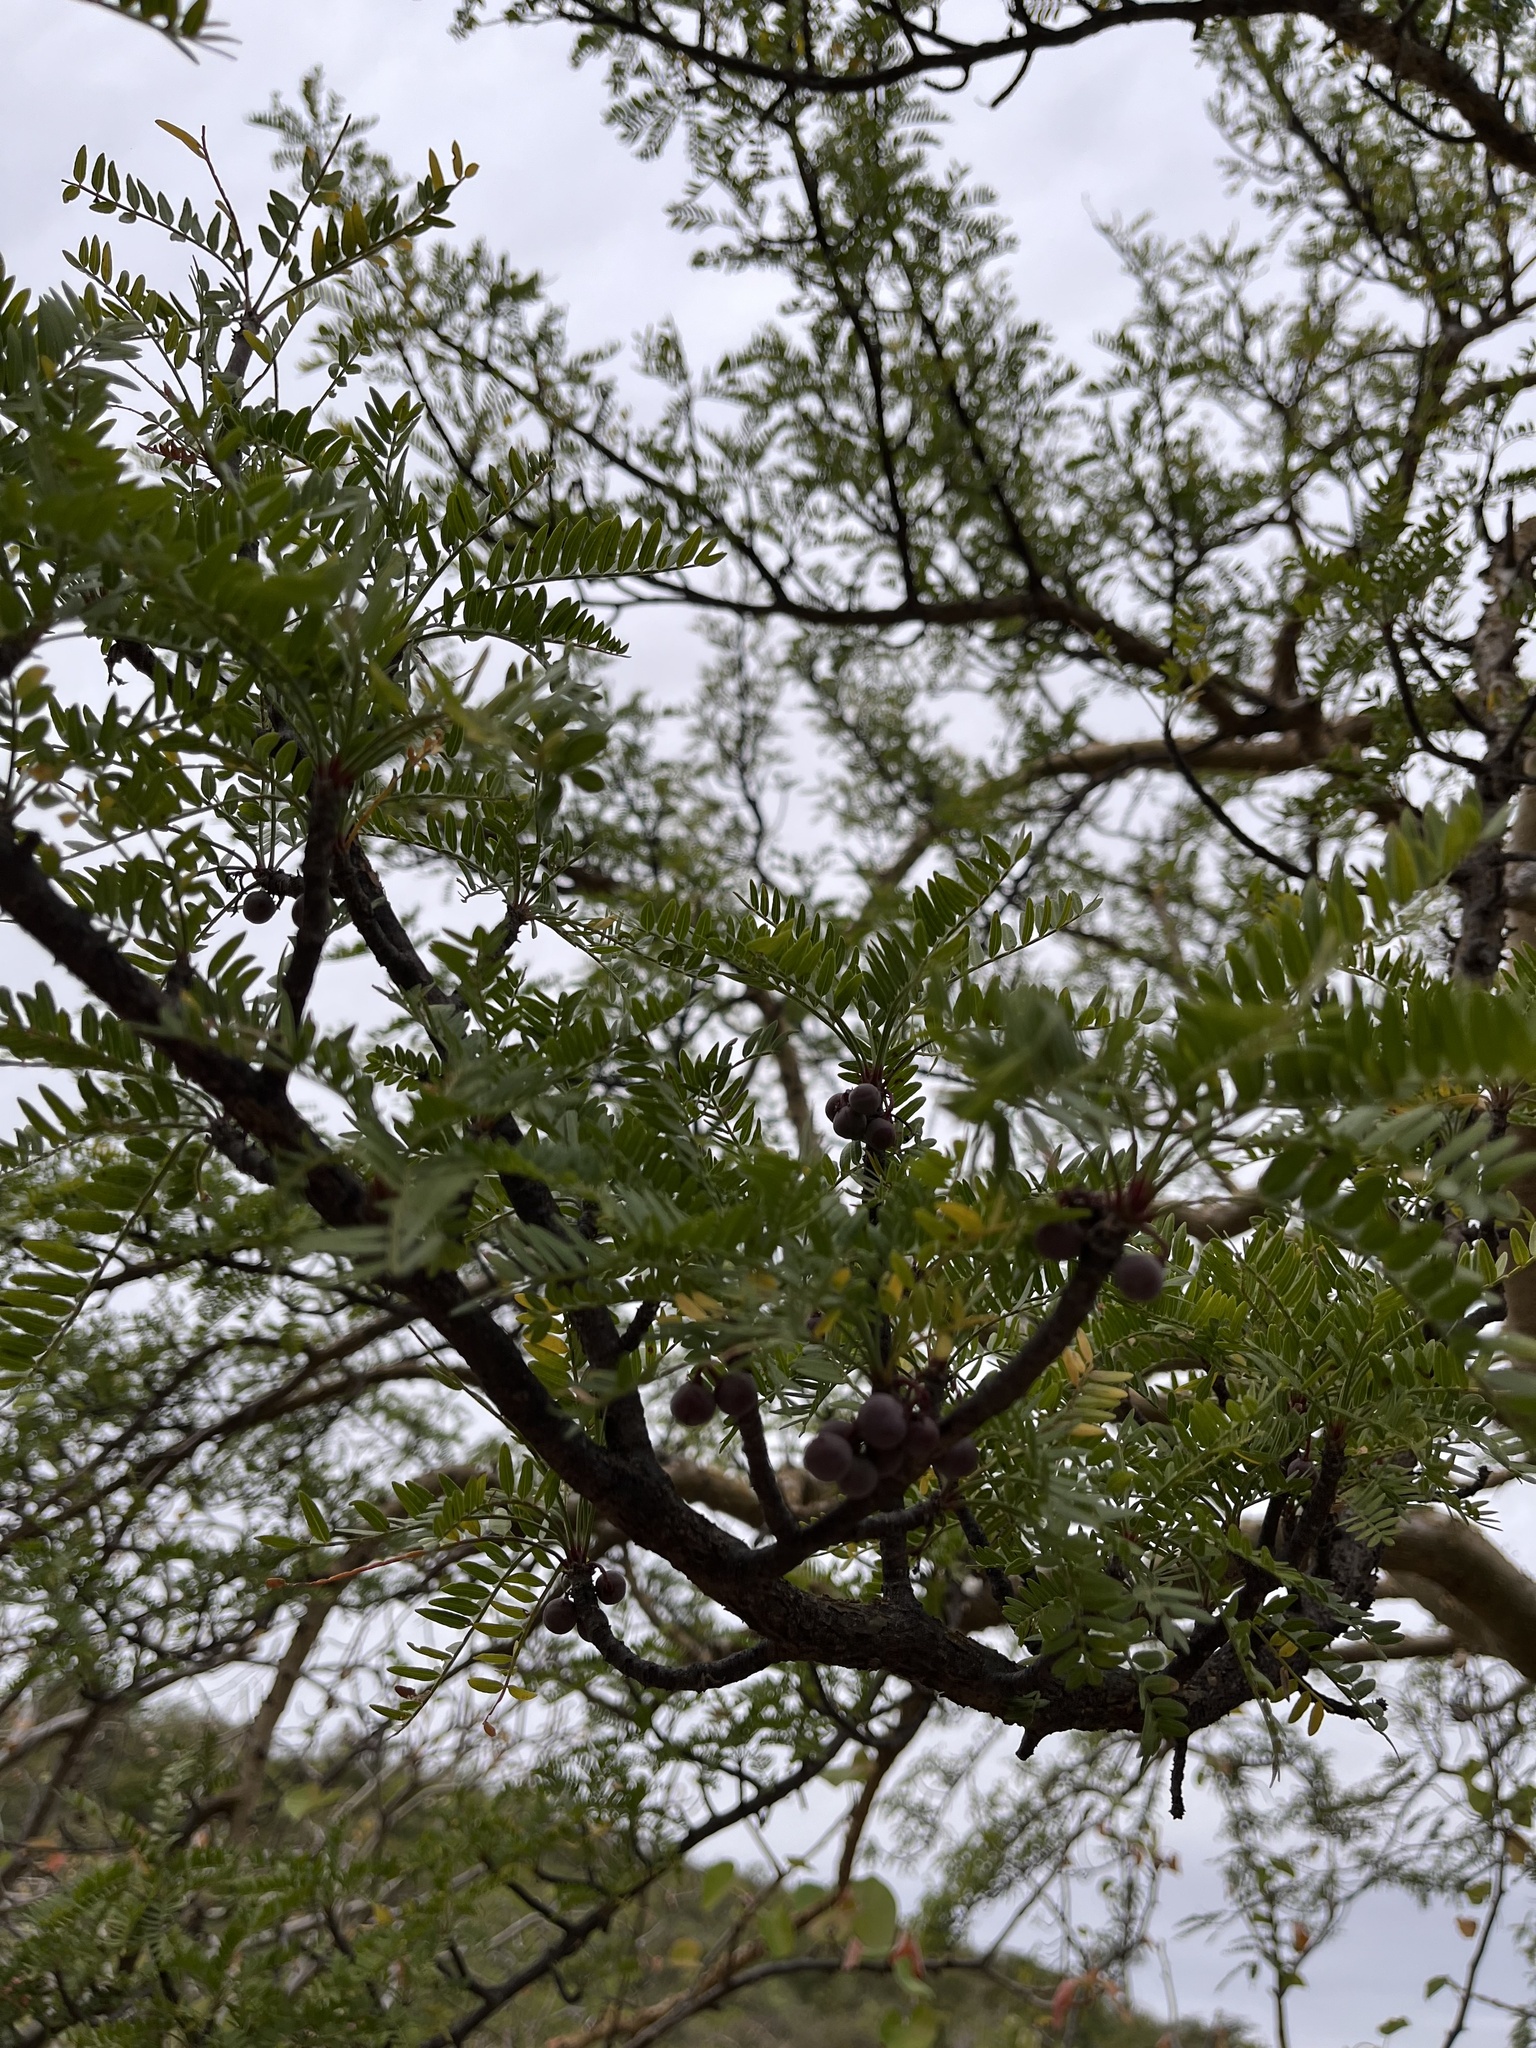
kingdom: Plantae
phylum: Tracheophyta
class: Magnoliopsida
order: Sapindales
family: Burseraceae
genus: Bursera
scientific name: Bursera microphylla
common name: Elephant tree
